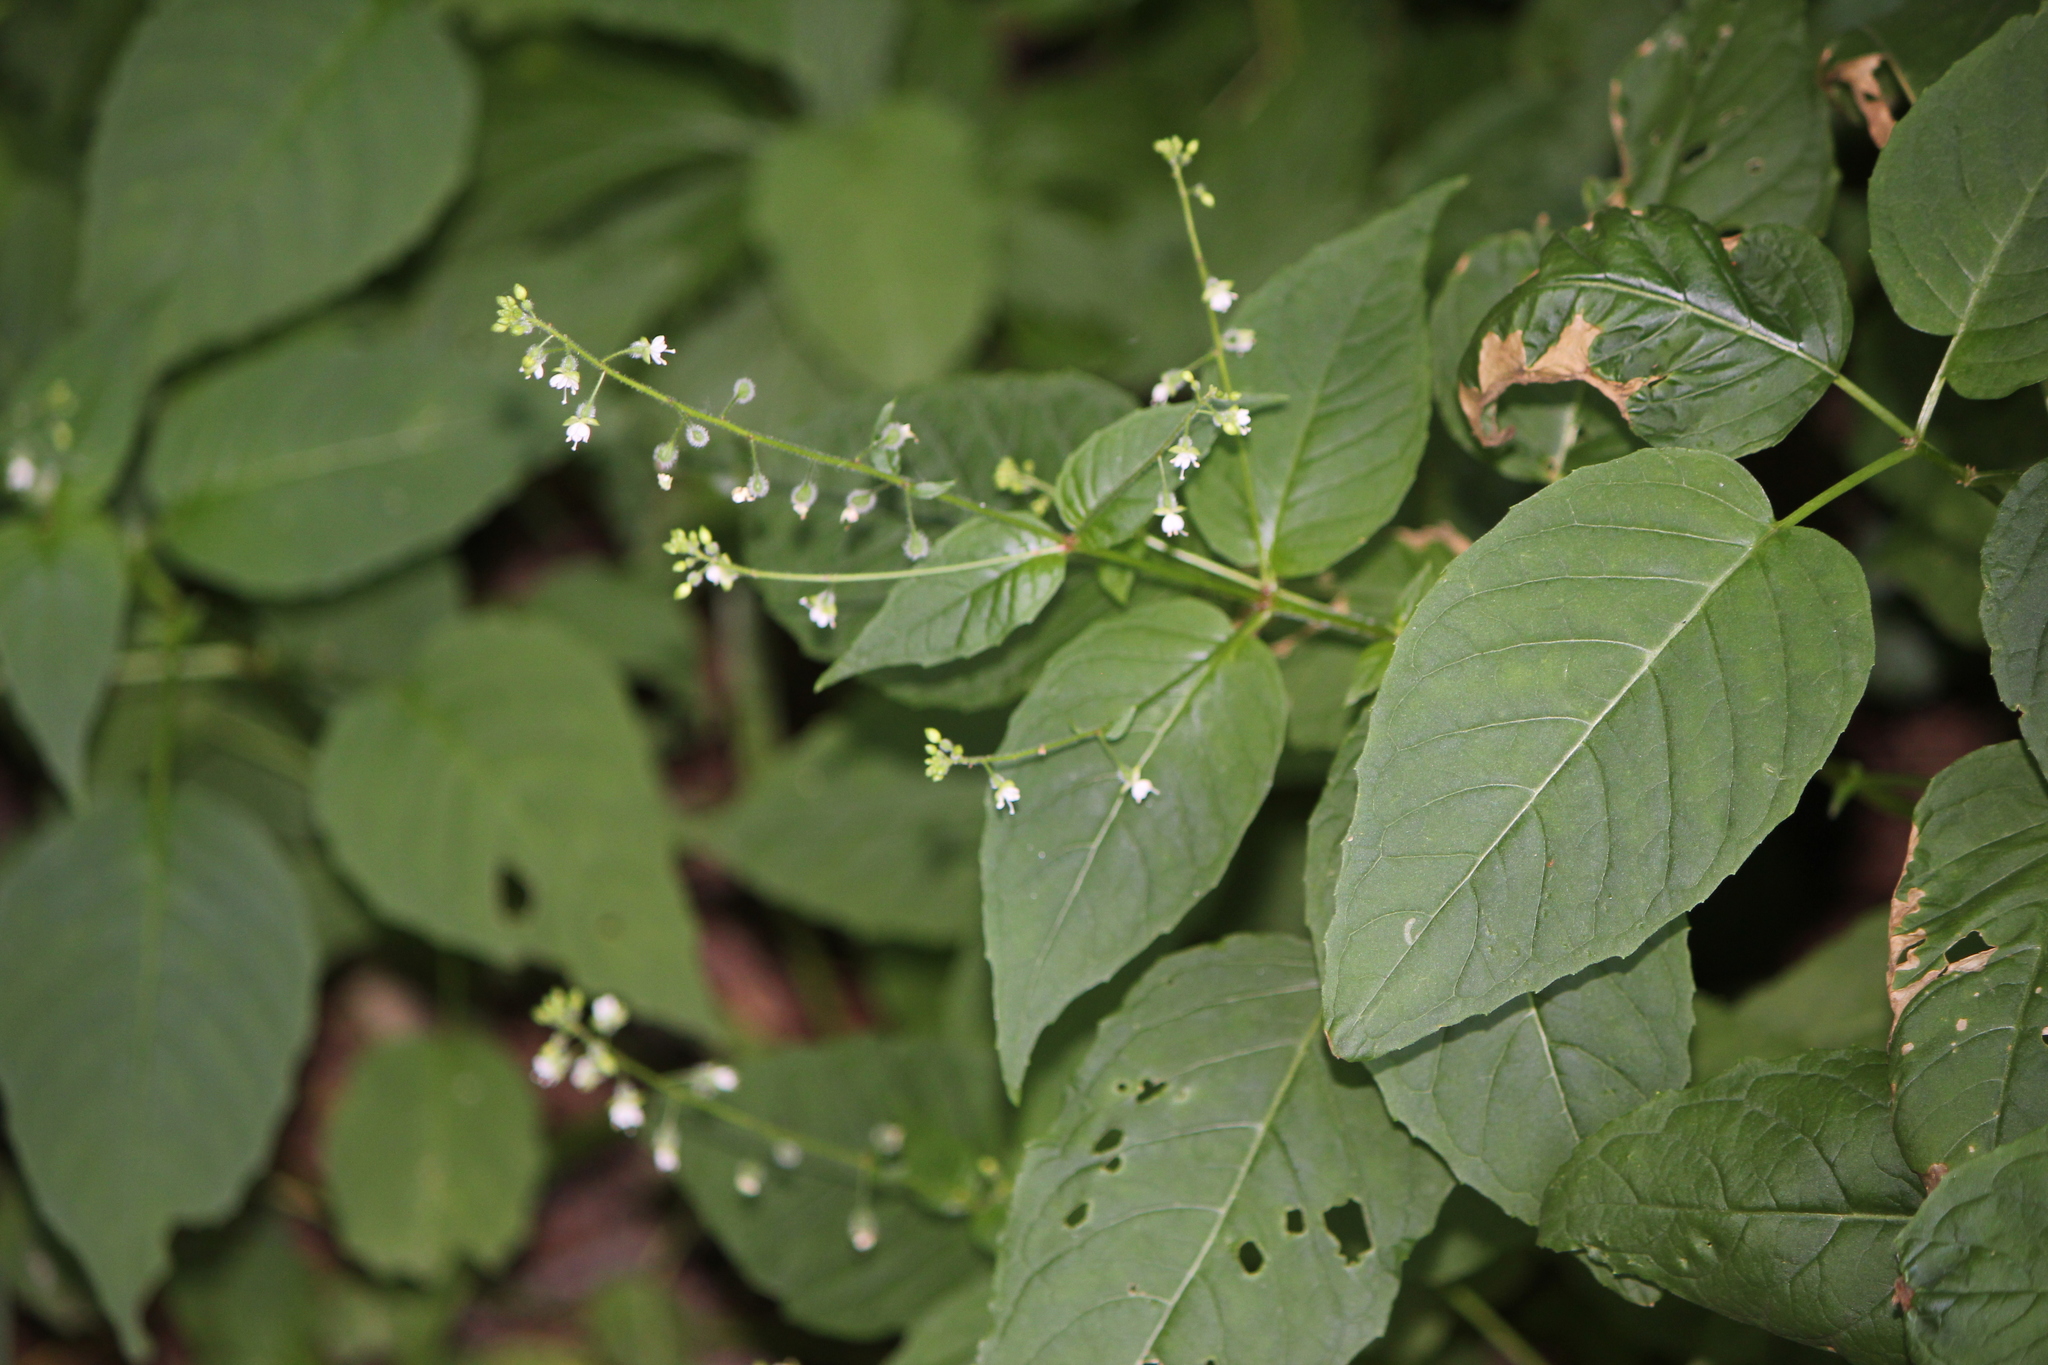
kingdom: Plantae
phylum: Tracheophyta
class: Magnoliopsida
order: Myrtales
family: Onagraceae
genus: Circaea
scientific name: Circaea canadensis
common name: Broad-leaved enchanter's nightshade
